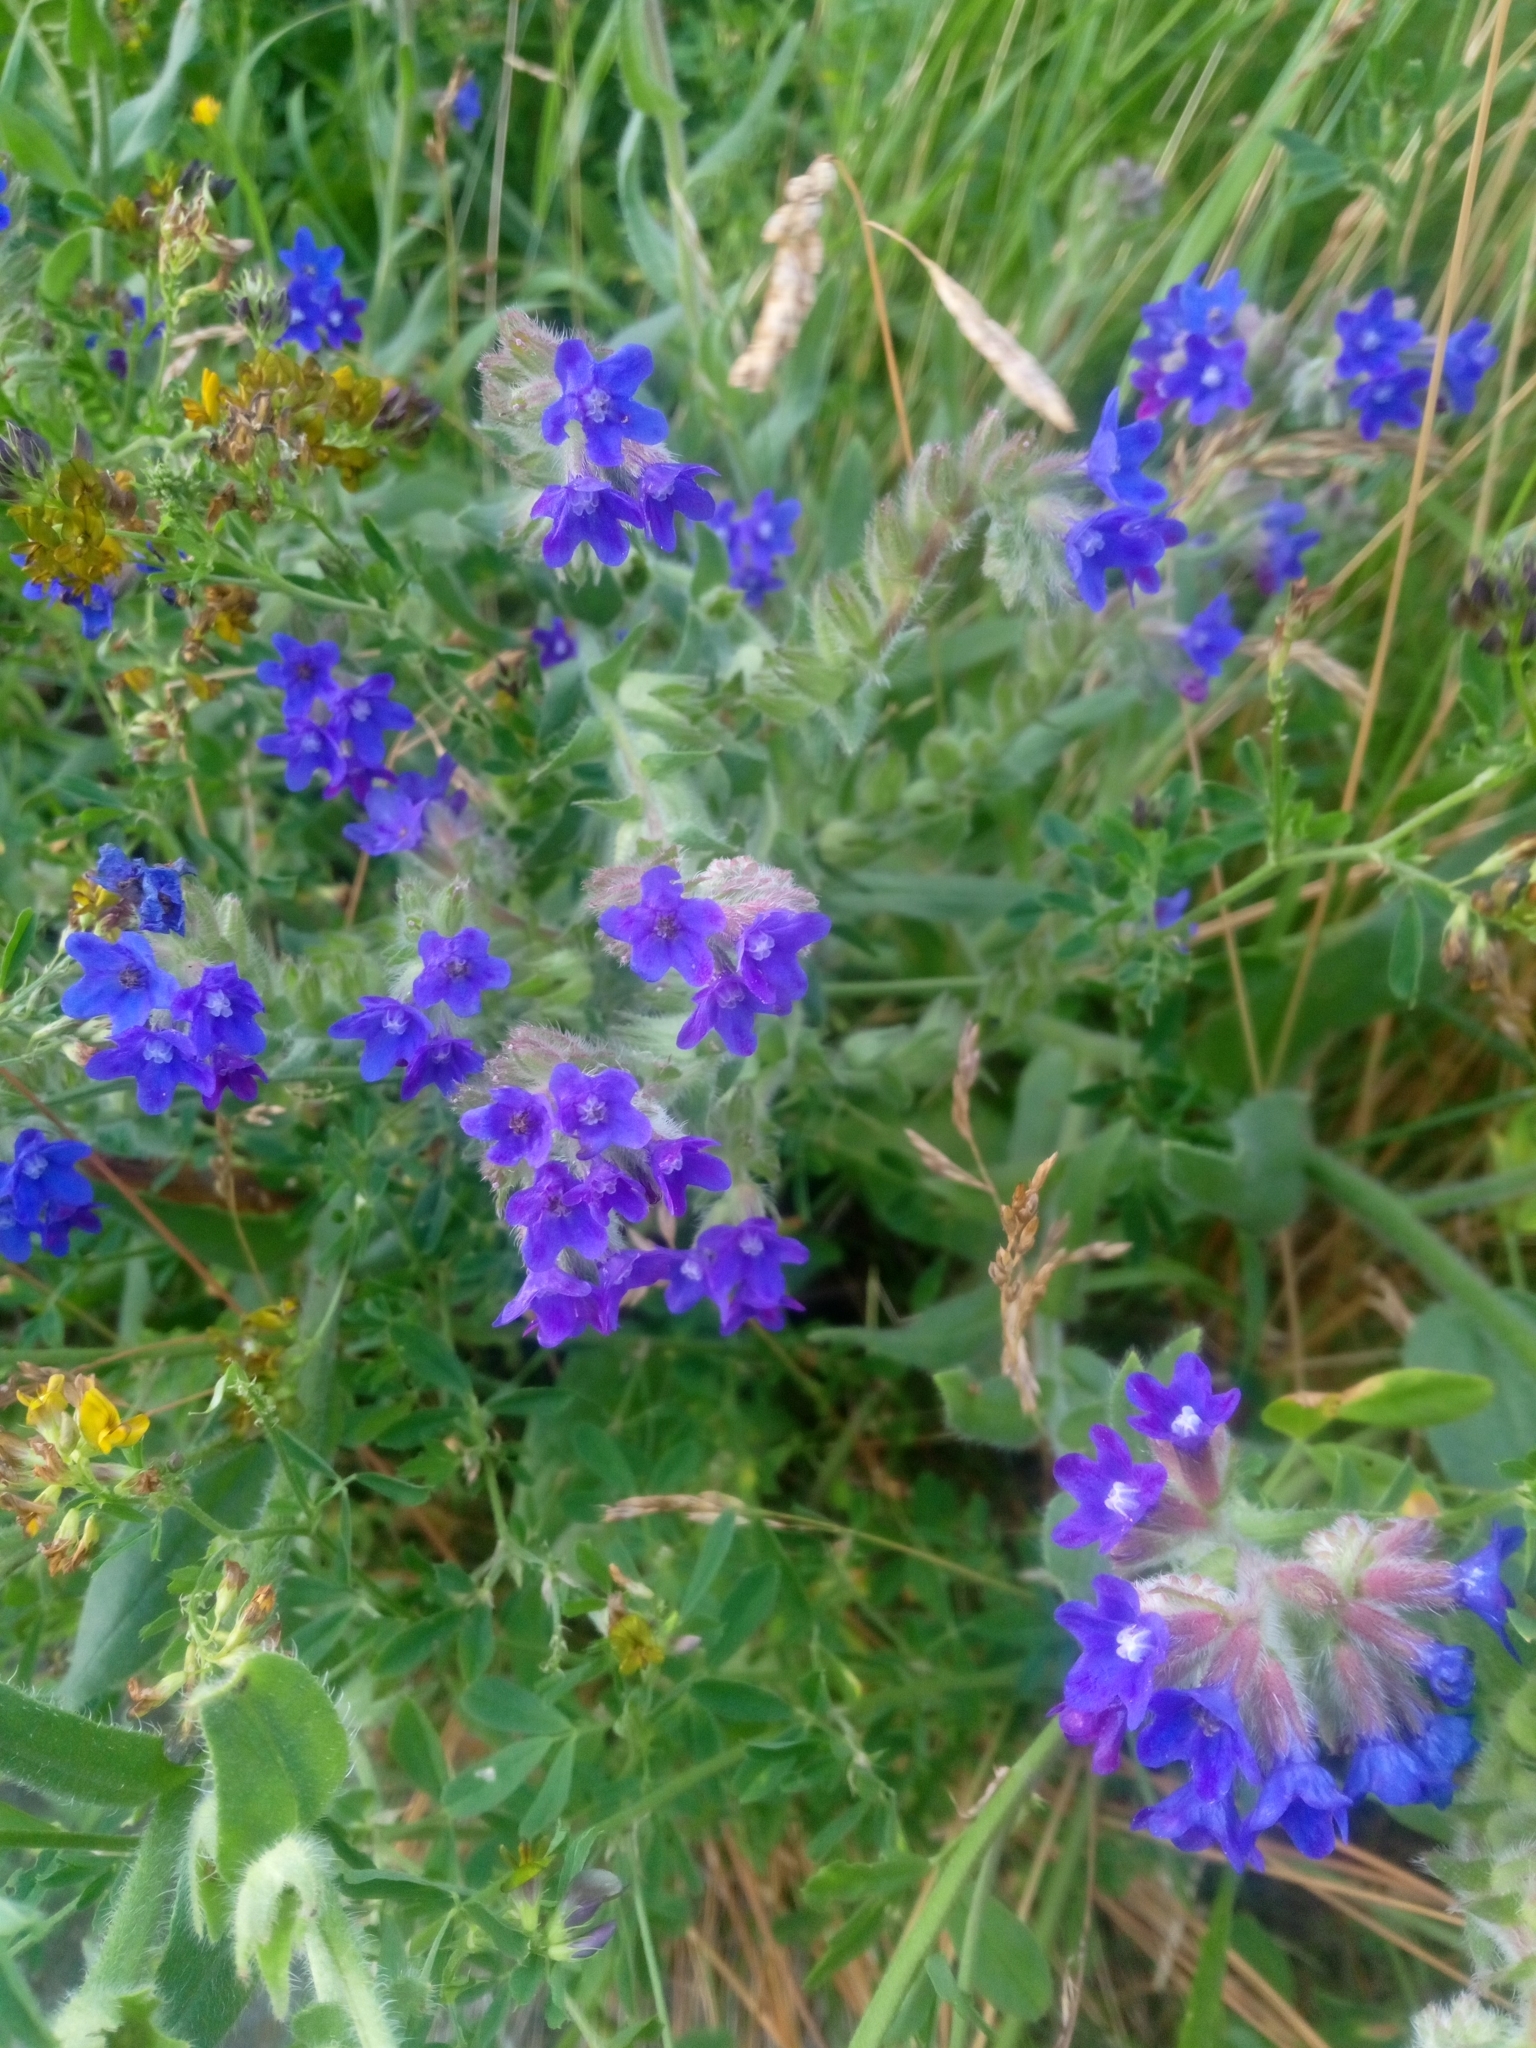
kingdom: Plantae
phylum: Tracheophyta
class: Magnoliopsida
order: Boraginales
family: Boraginaceae
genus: Anchusa
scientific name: Anchusa officinalis
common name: Alkanet
